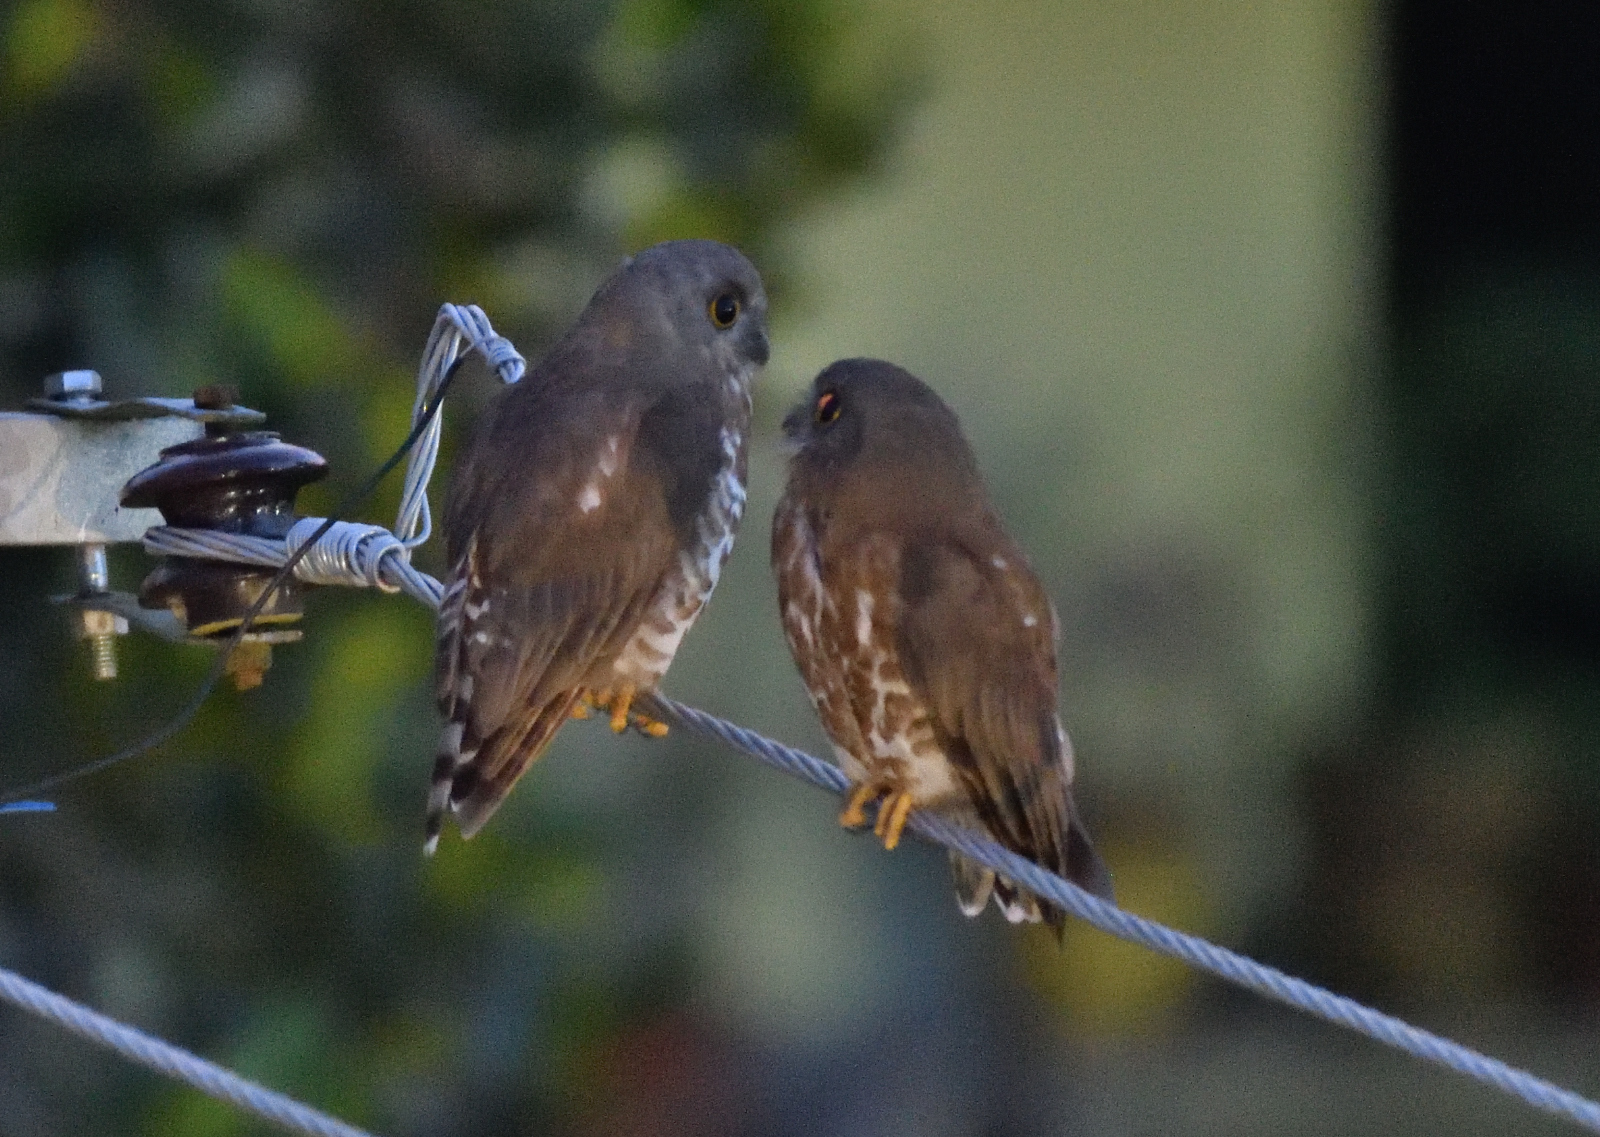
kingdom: Animalia
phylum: Chordata
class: Aves
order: Strigiformes
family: Strigidae
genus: Ninox
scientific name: Ninox scutulata
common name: Brown hawk-owl
